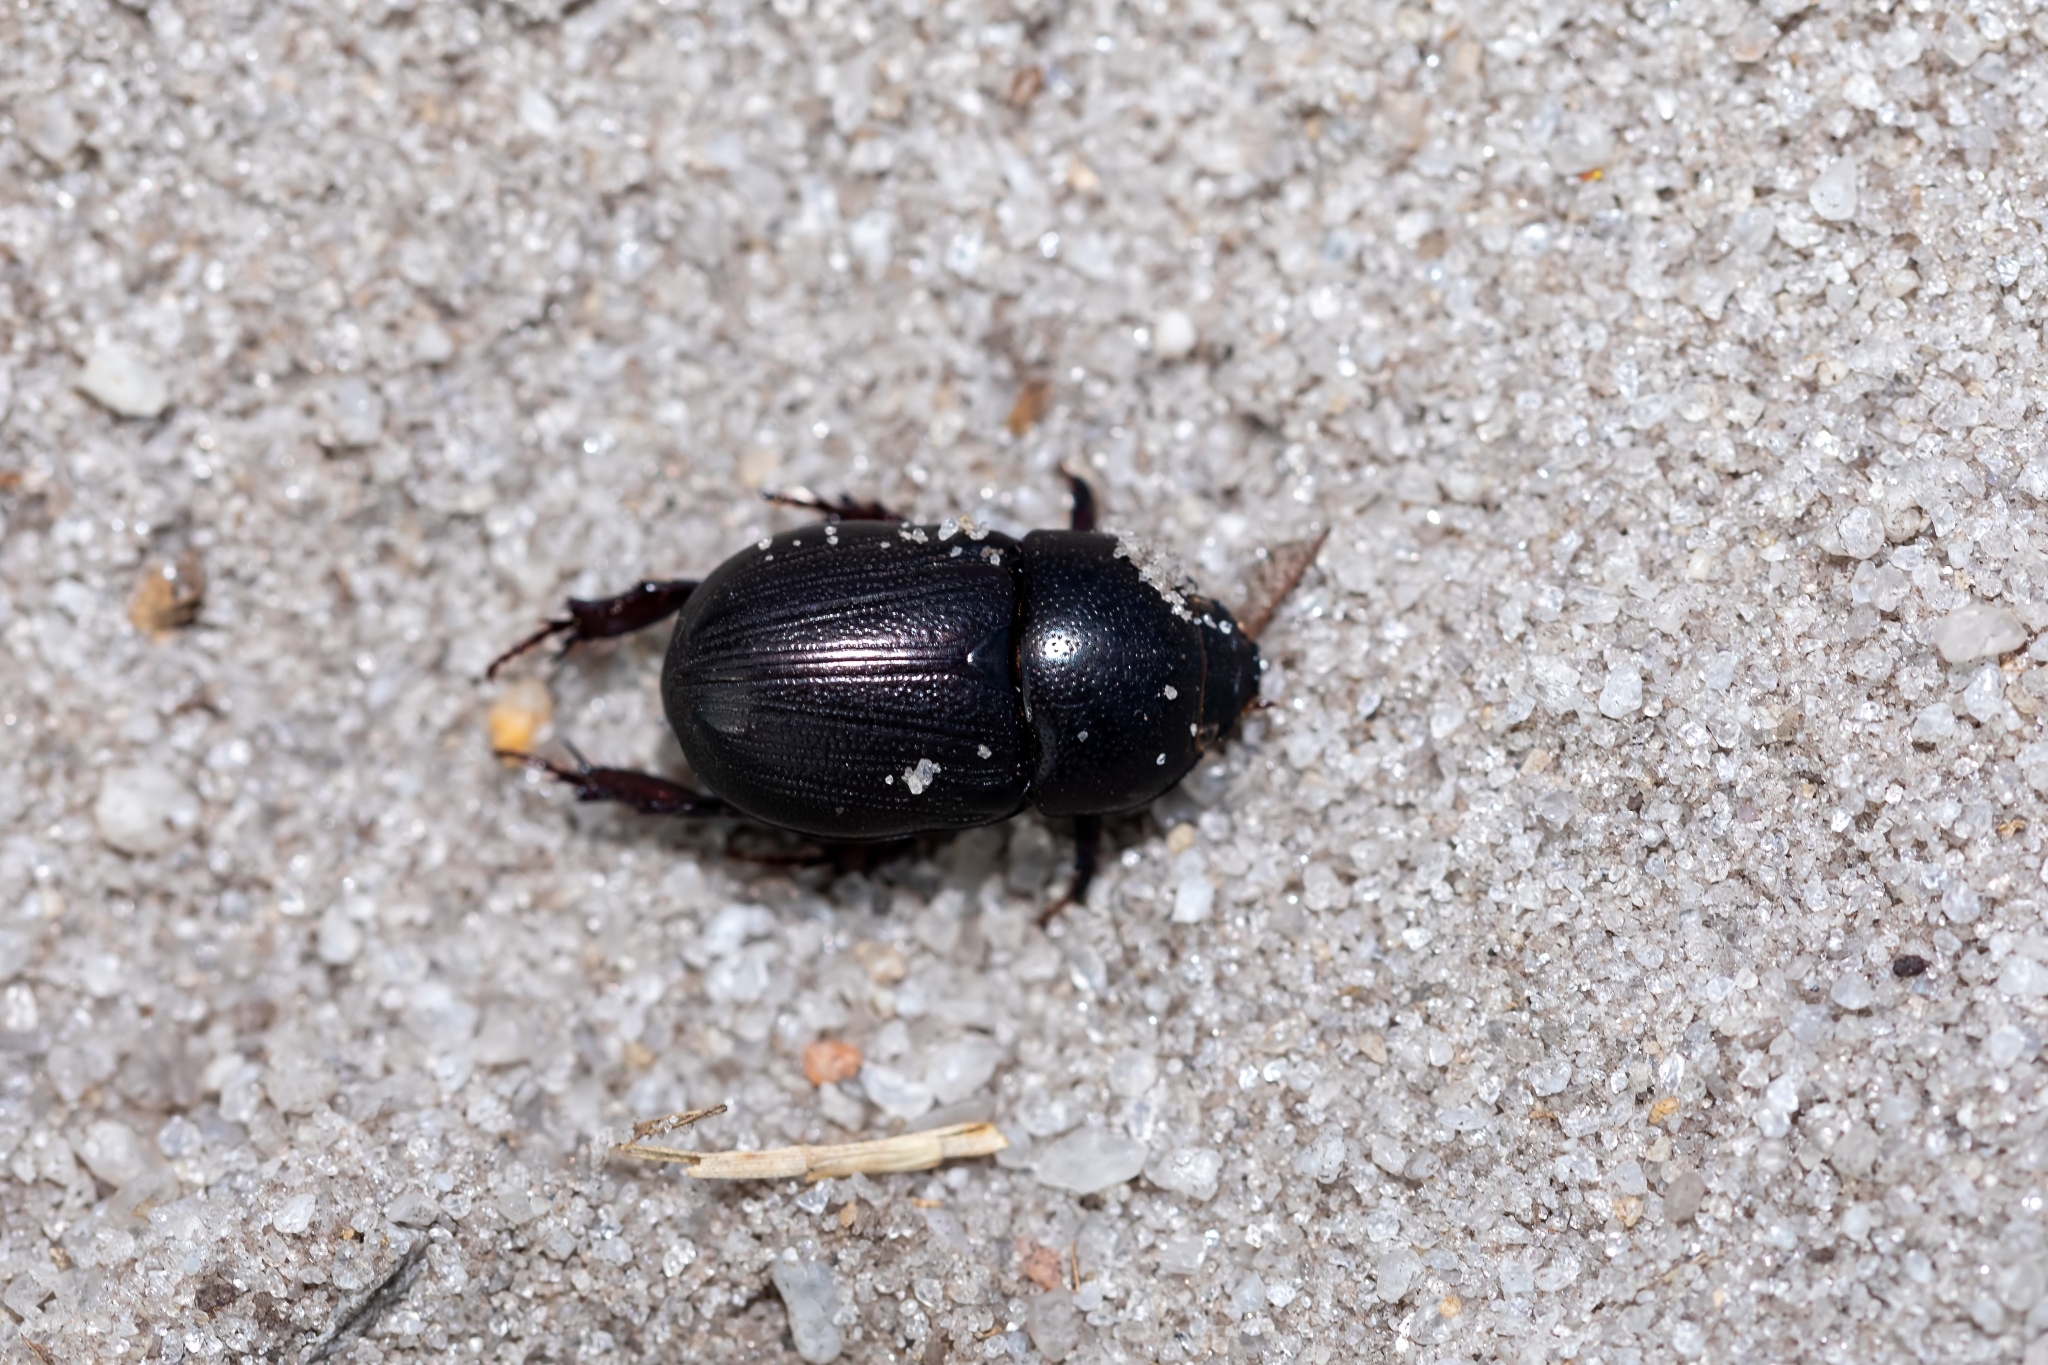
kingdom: Animalia
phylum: Arthropoda
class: Insecta
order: Coleoptera
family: Scarabaeidae
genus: Euetheola
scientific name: Euetheola humilis
